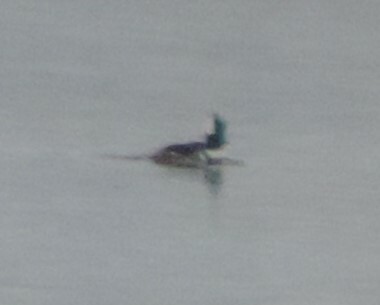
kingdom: Animalia
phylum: Chordata
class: Aves
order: Anseriformes
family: Anatidae
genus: Lophodytes
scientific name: Lophodytes cucullatus
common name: Hooded merganser
